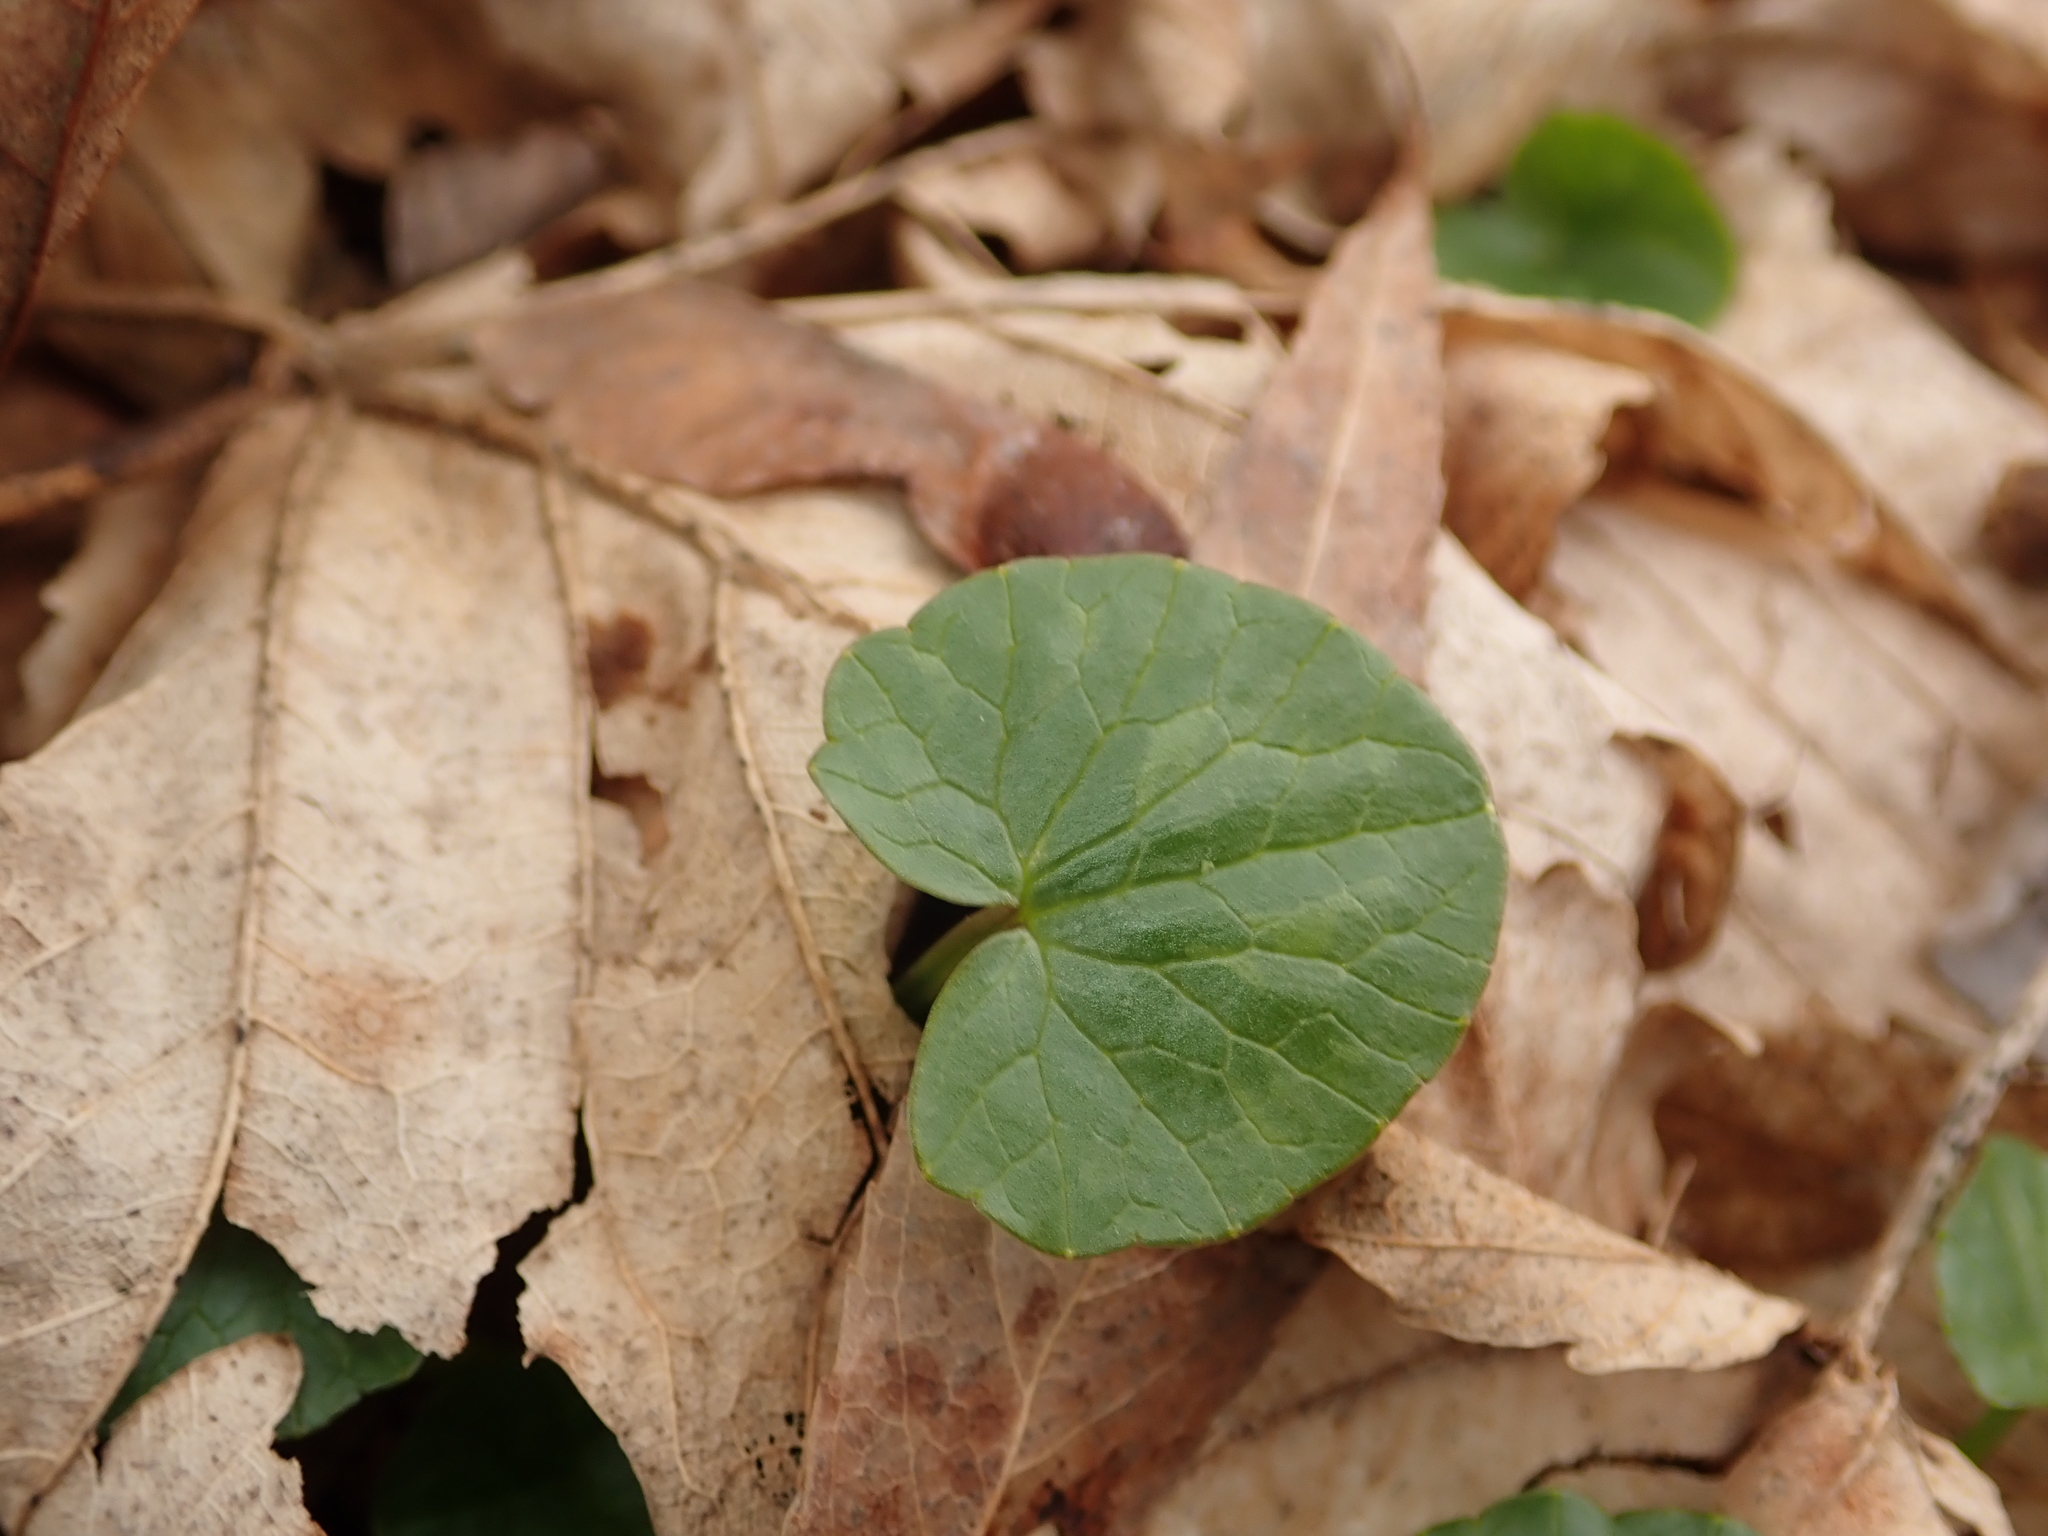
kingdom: Plantae
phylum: Tracheophyta
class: Magnoliopsida
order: Ranunculales
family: Ranunculaceae
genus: Ficaria
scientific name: Ficaria verna
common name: Lesser celandine
